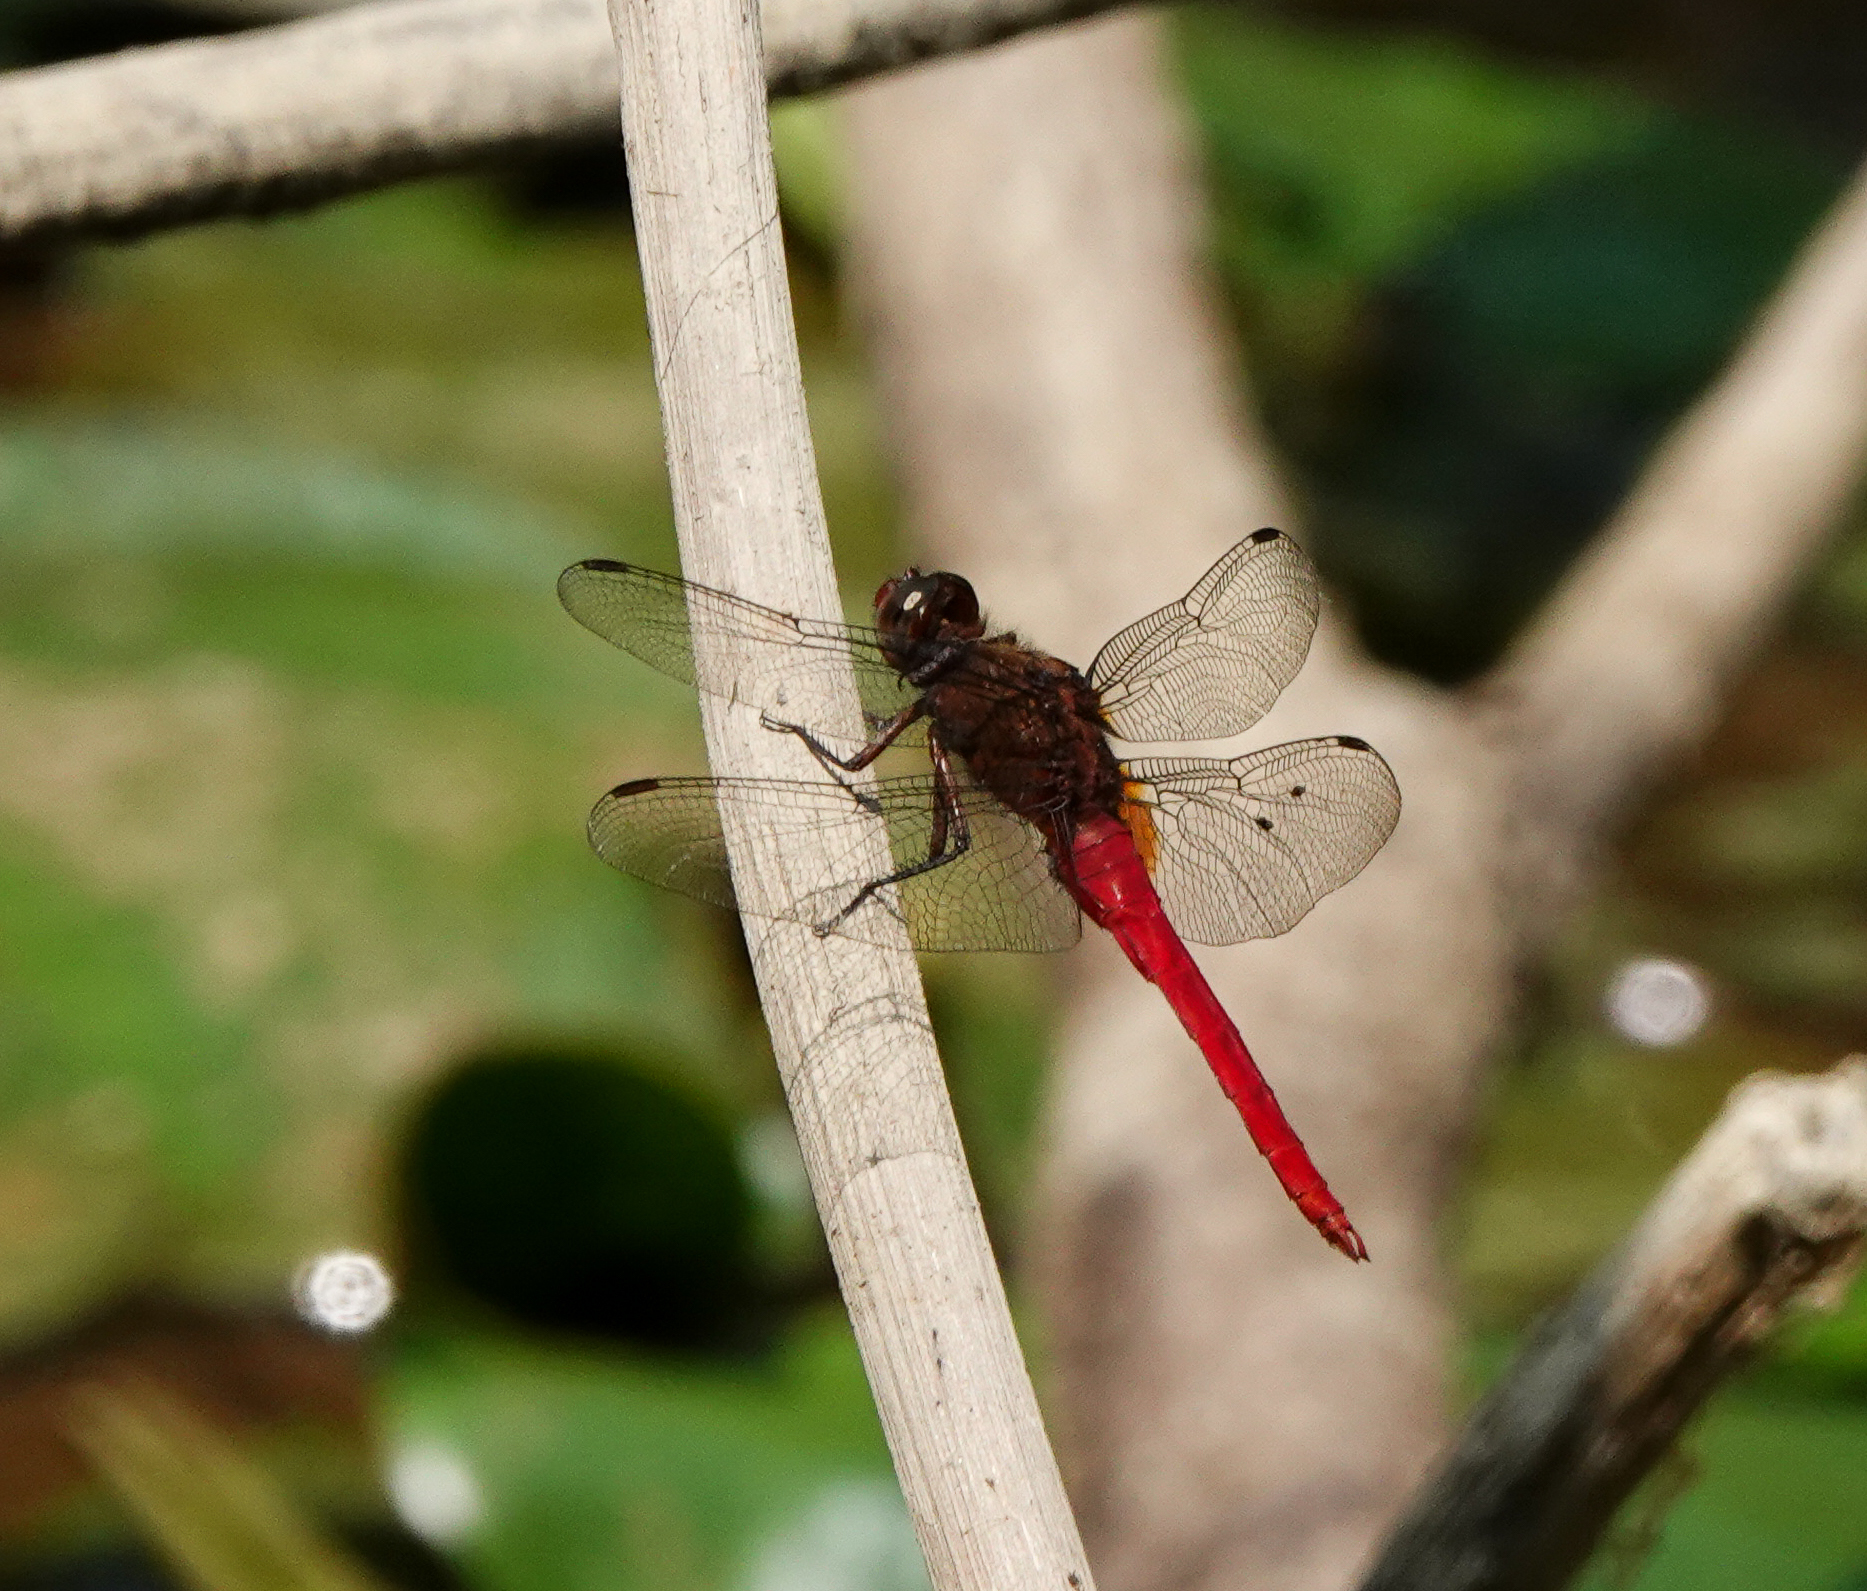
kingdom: Animalia
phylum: Arthropoda
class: Insecta
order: Odonata
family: Libellulidae
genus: Orthetrum
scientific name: Orthetrum chrysis
